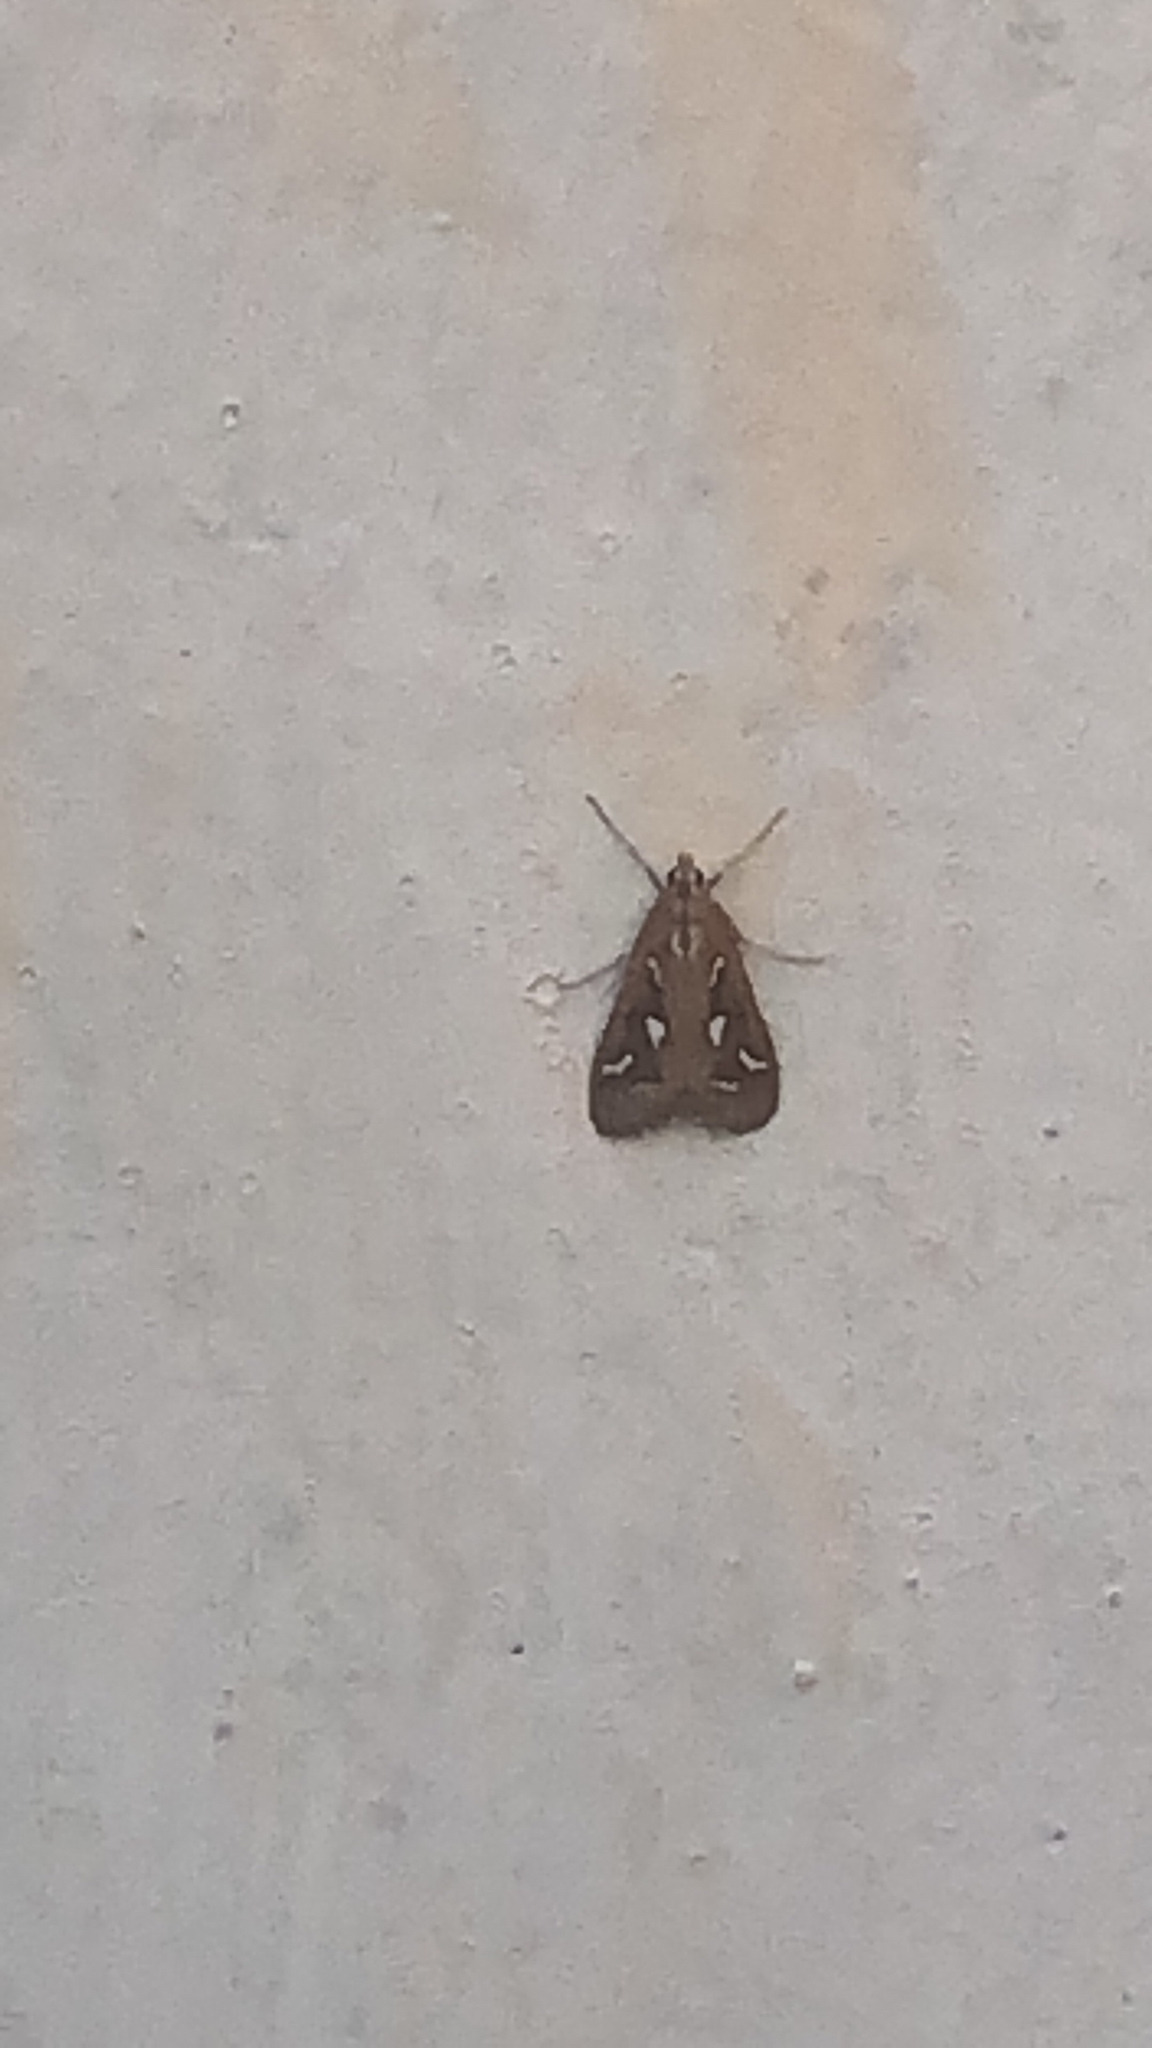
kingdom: Animalia
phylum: Arthropoda
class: Insecta
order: Lepidoptera
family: Crambidae
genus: Diastictis
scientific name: Diastictis fracturalis
